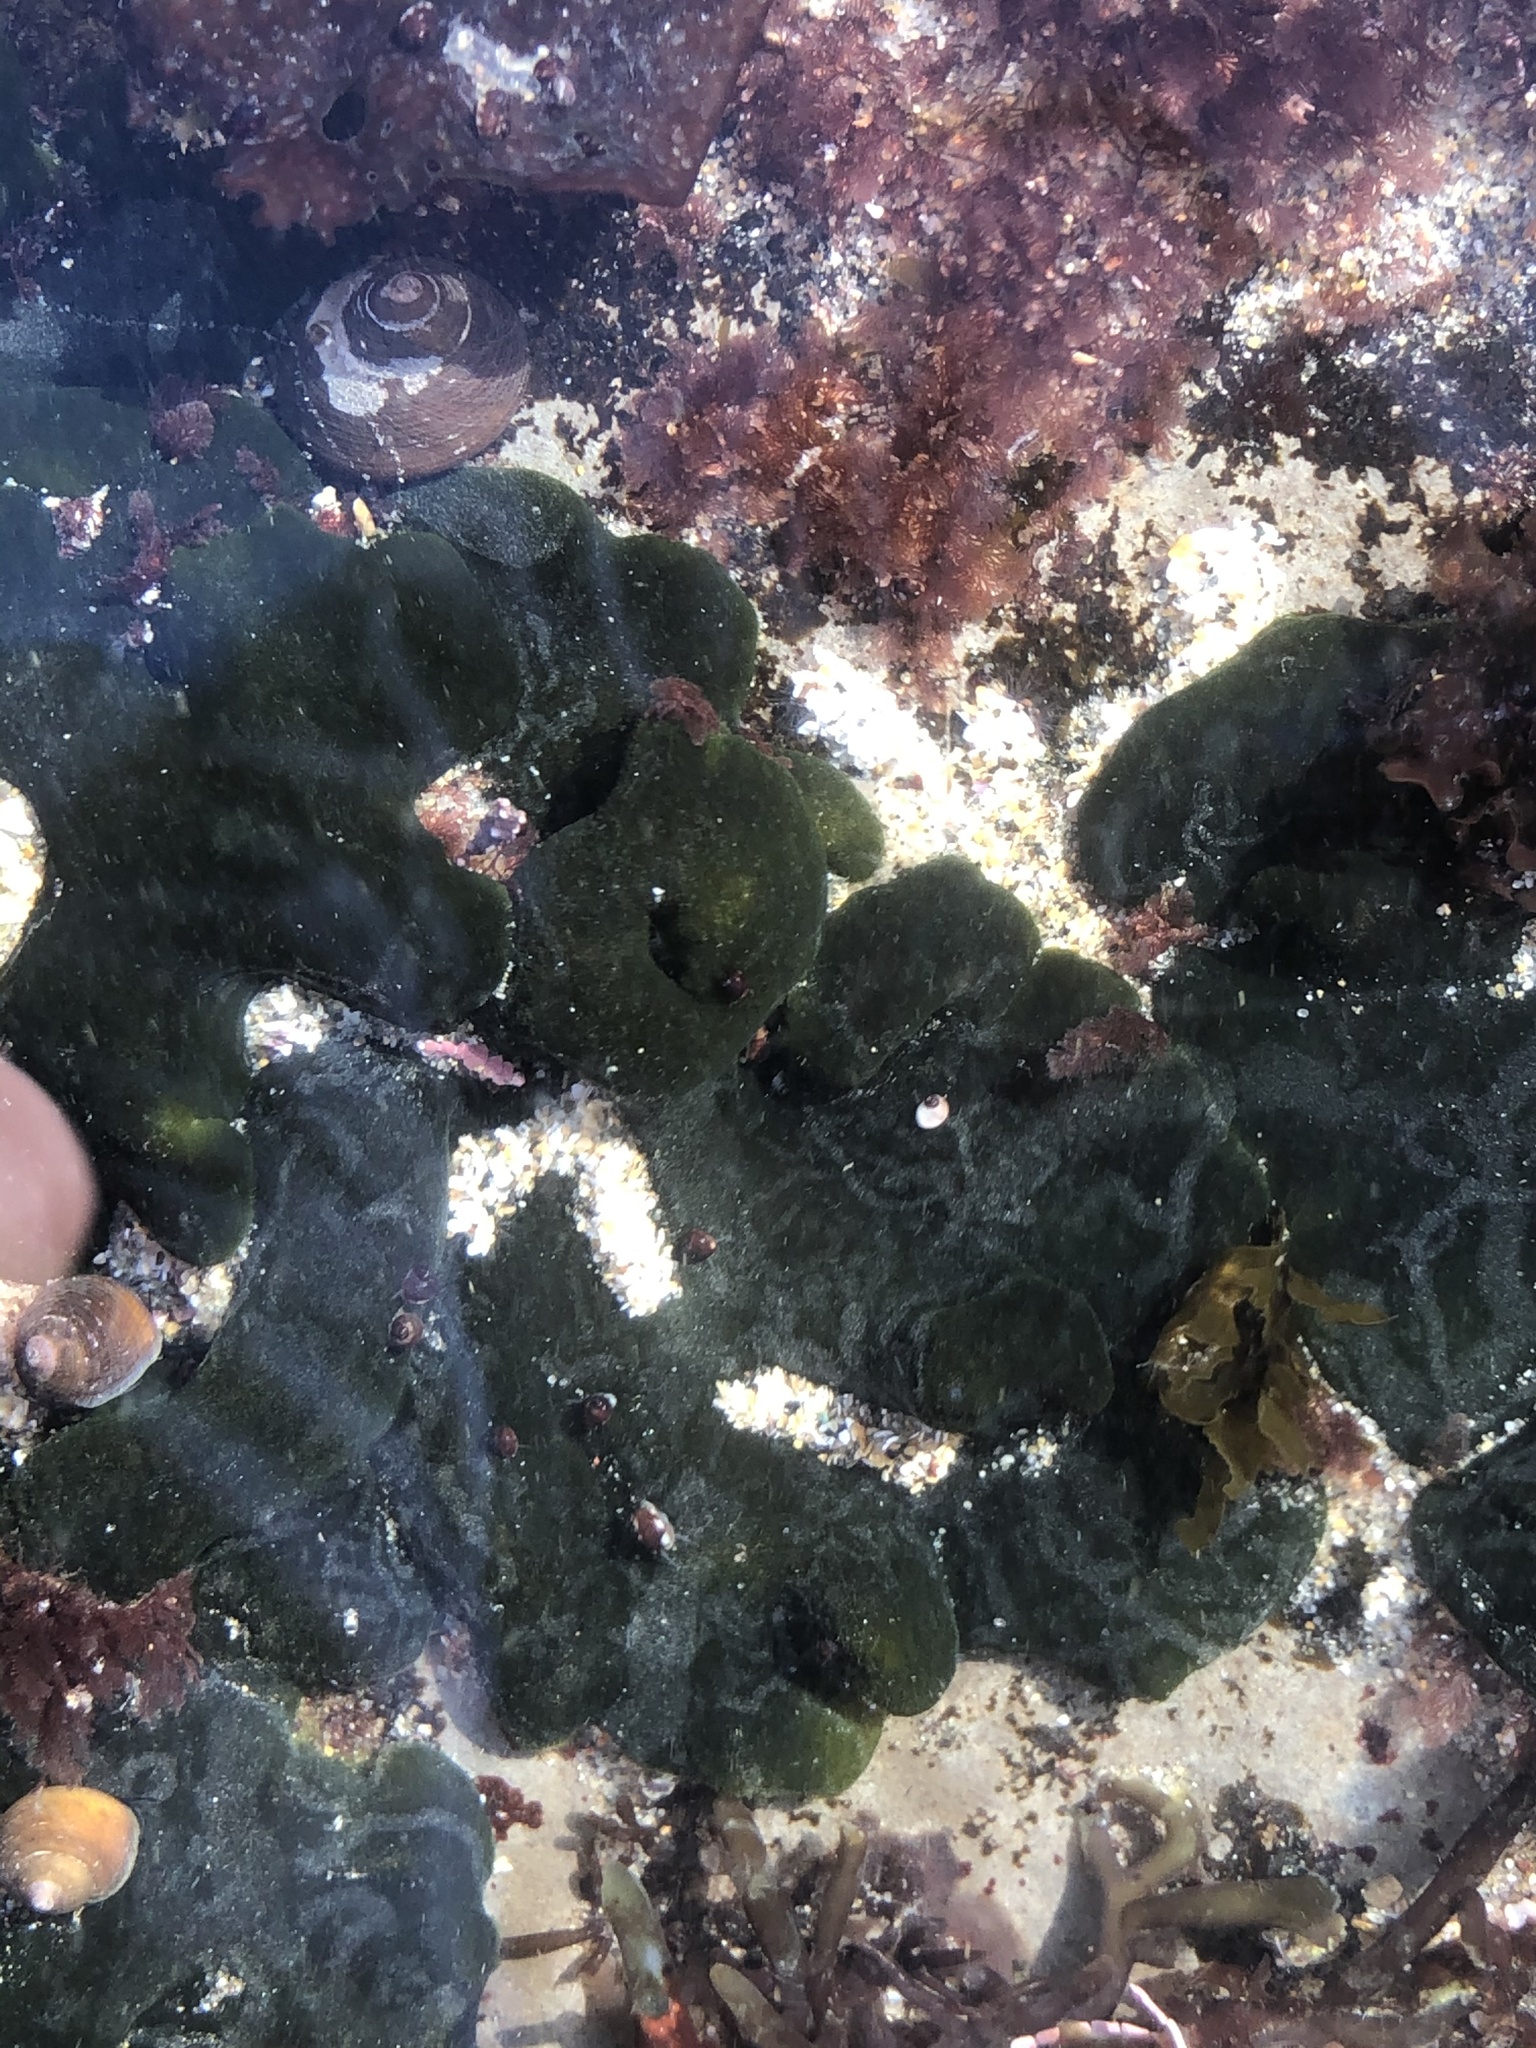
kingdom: Plantae
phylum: Chlorophyta
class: Ulvophyceae
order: Bryopsidales
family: Codiaceae
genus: Codium
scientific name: Codium setchellii
